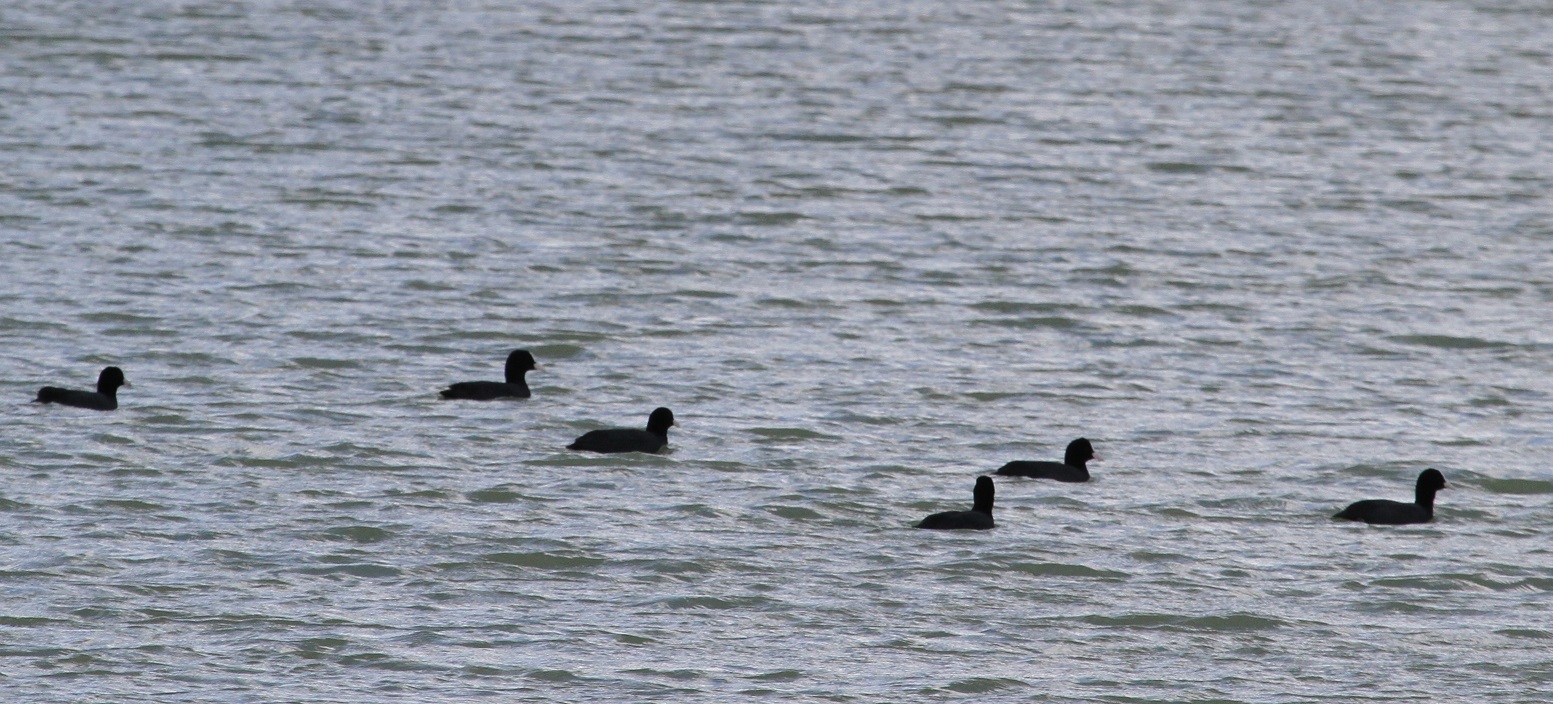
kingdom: Animalia
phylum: Chordata
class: Aves
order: Gruiformes
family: Rallidae
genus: Fulica
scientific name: Fulica atra
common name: Eurasian coot
